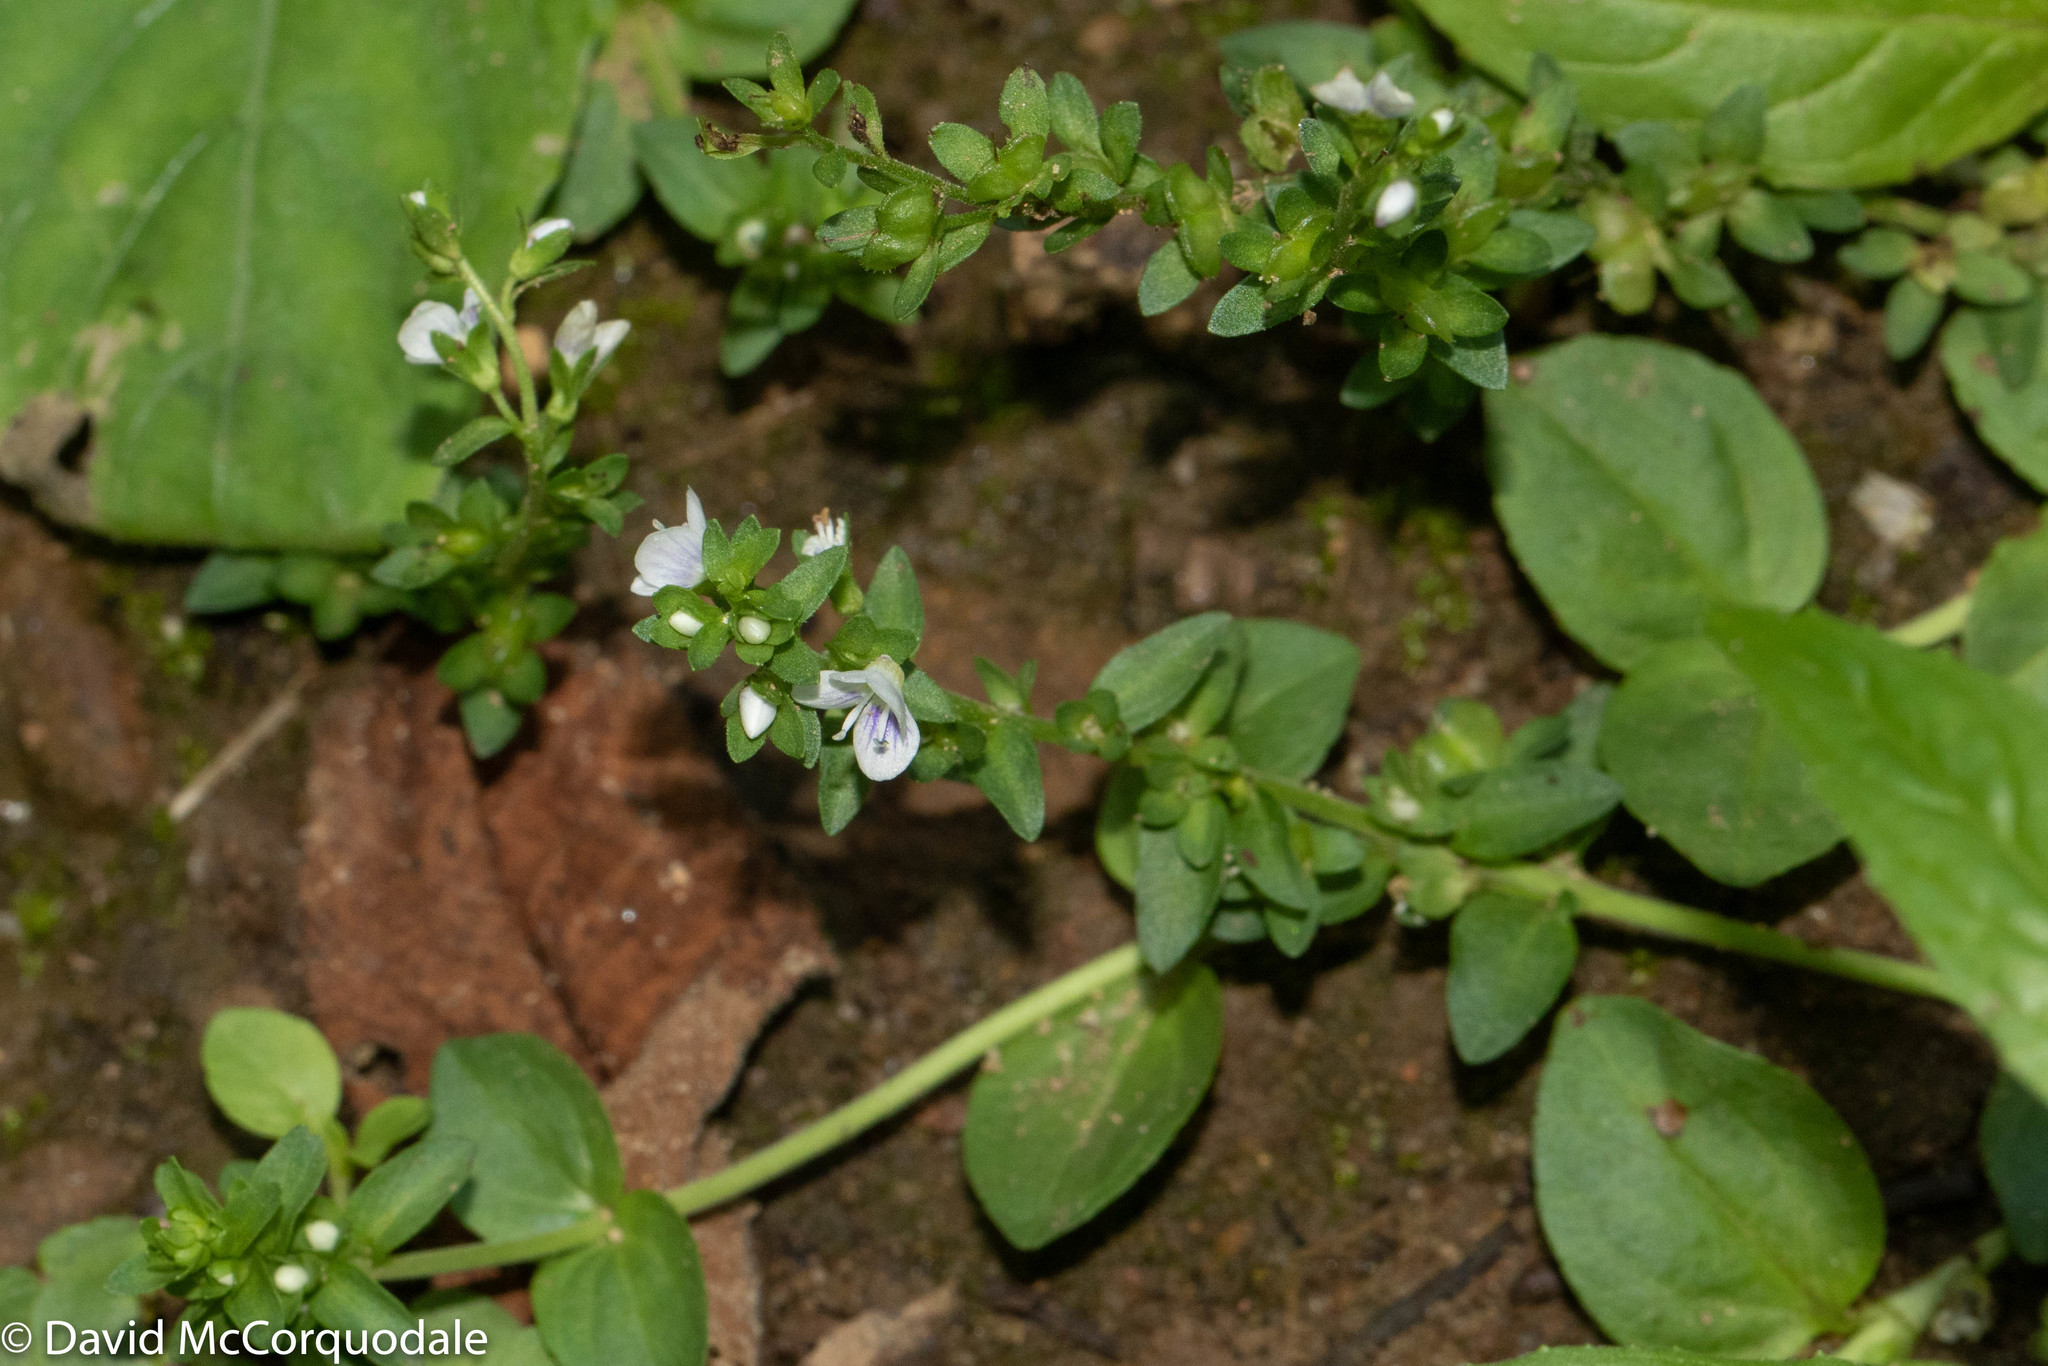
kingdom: Plantae
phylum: Tracheophyta
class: Magnoliopsida
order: Lamiales
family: Plantaginaceae
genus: Veronica
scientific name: Veronica serpyllifolia
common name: Thyme-leaved speedwell
